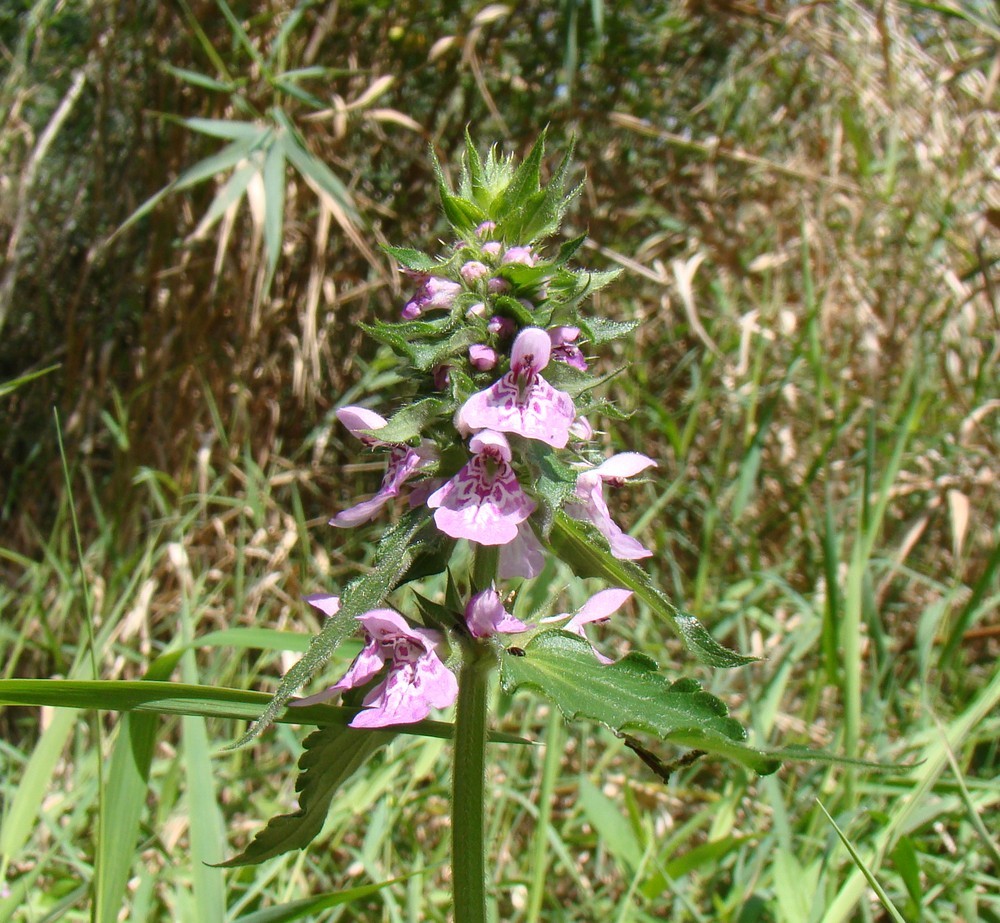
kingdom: Plantae
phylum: Tracheophyta
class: Magnoliopsida
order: Lamiales
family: Lamiaceae
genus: Stachys
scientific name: Stachys palustris
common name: Marsh woundwort
